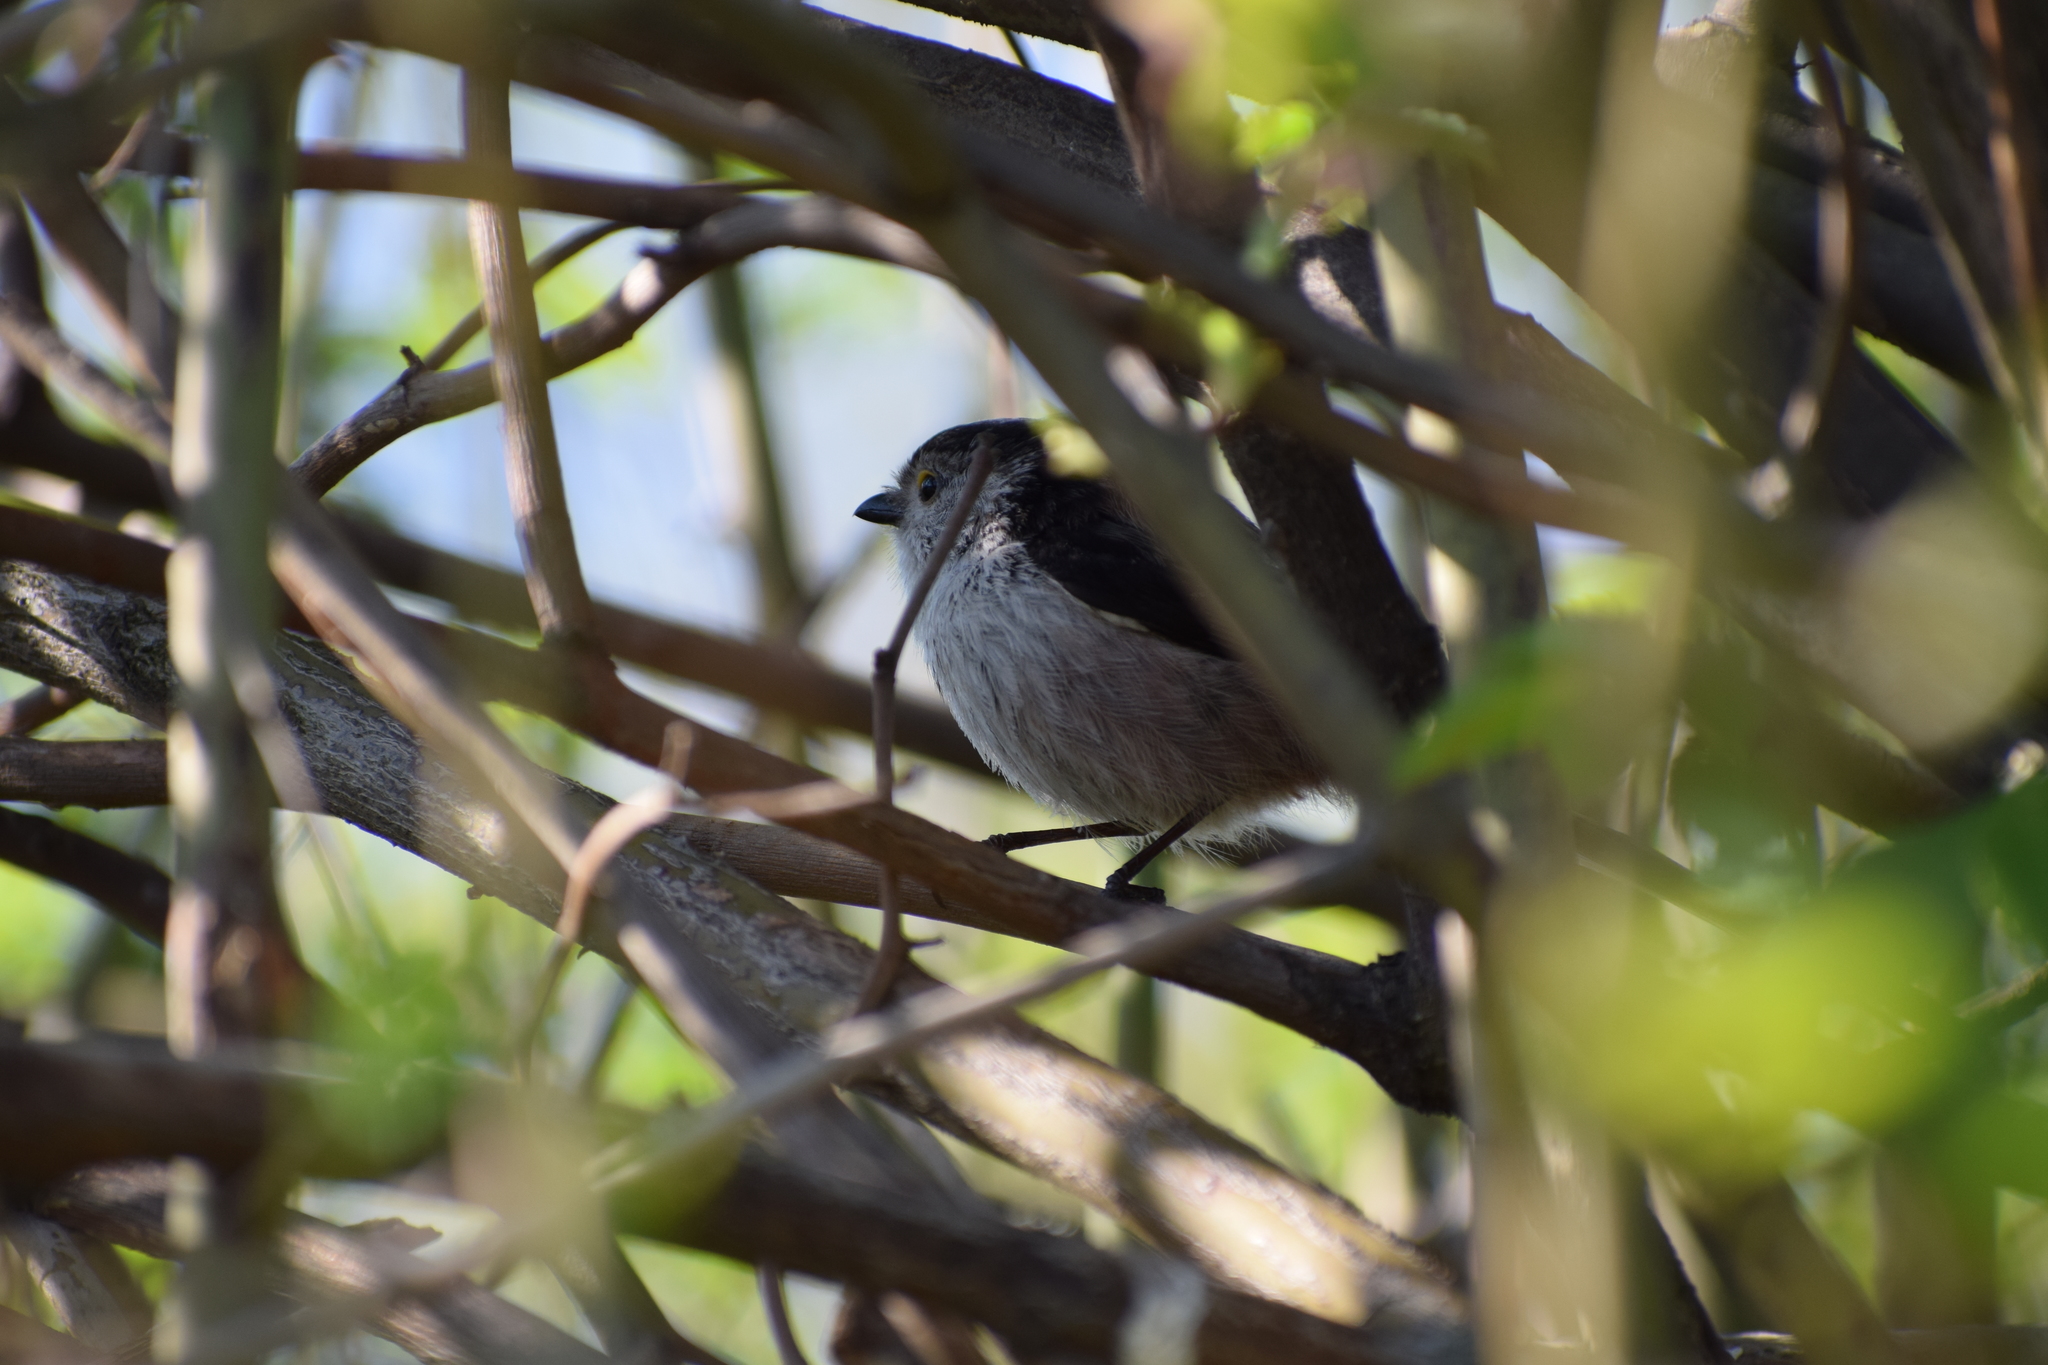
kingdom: Animalia
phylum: Chordata
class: Aves
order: Passeriformes
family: Aegithalidae
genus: Aegithalos
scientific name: Aegithalos caudatus
